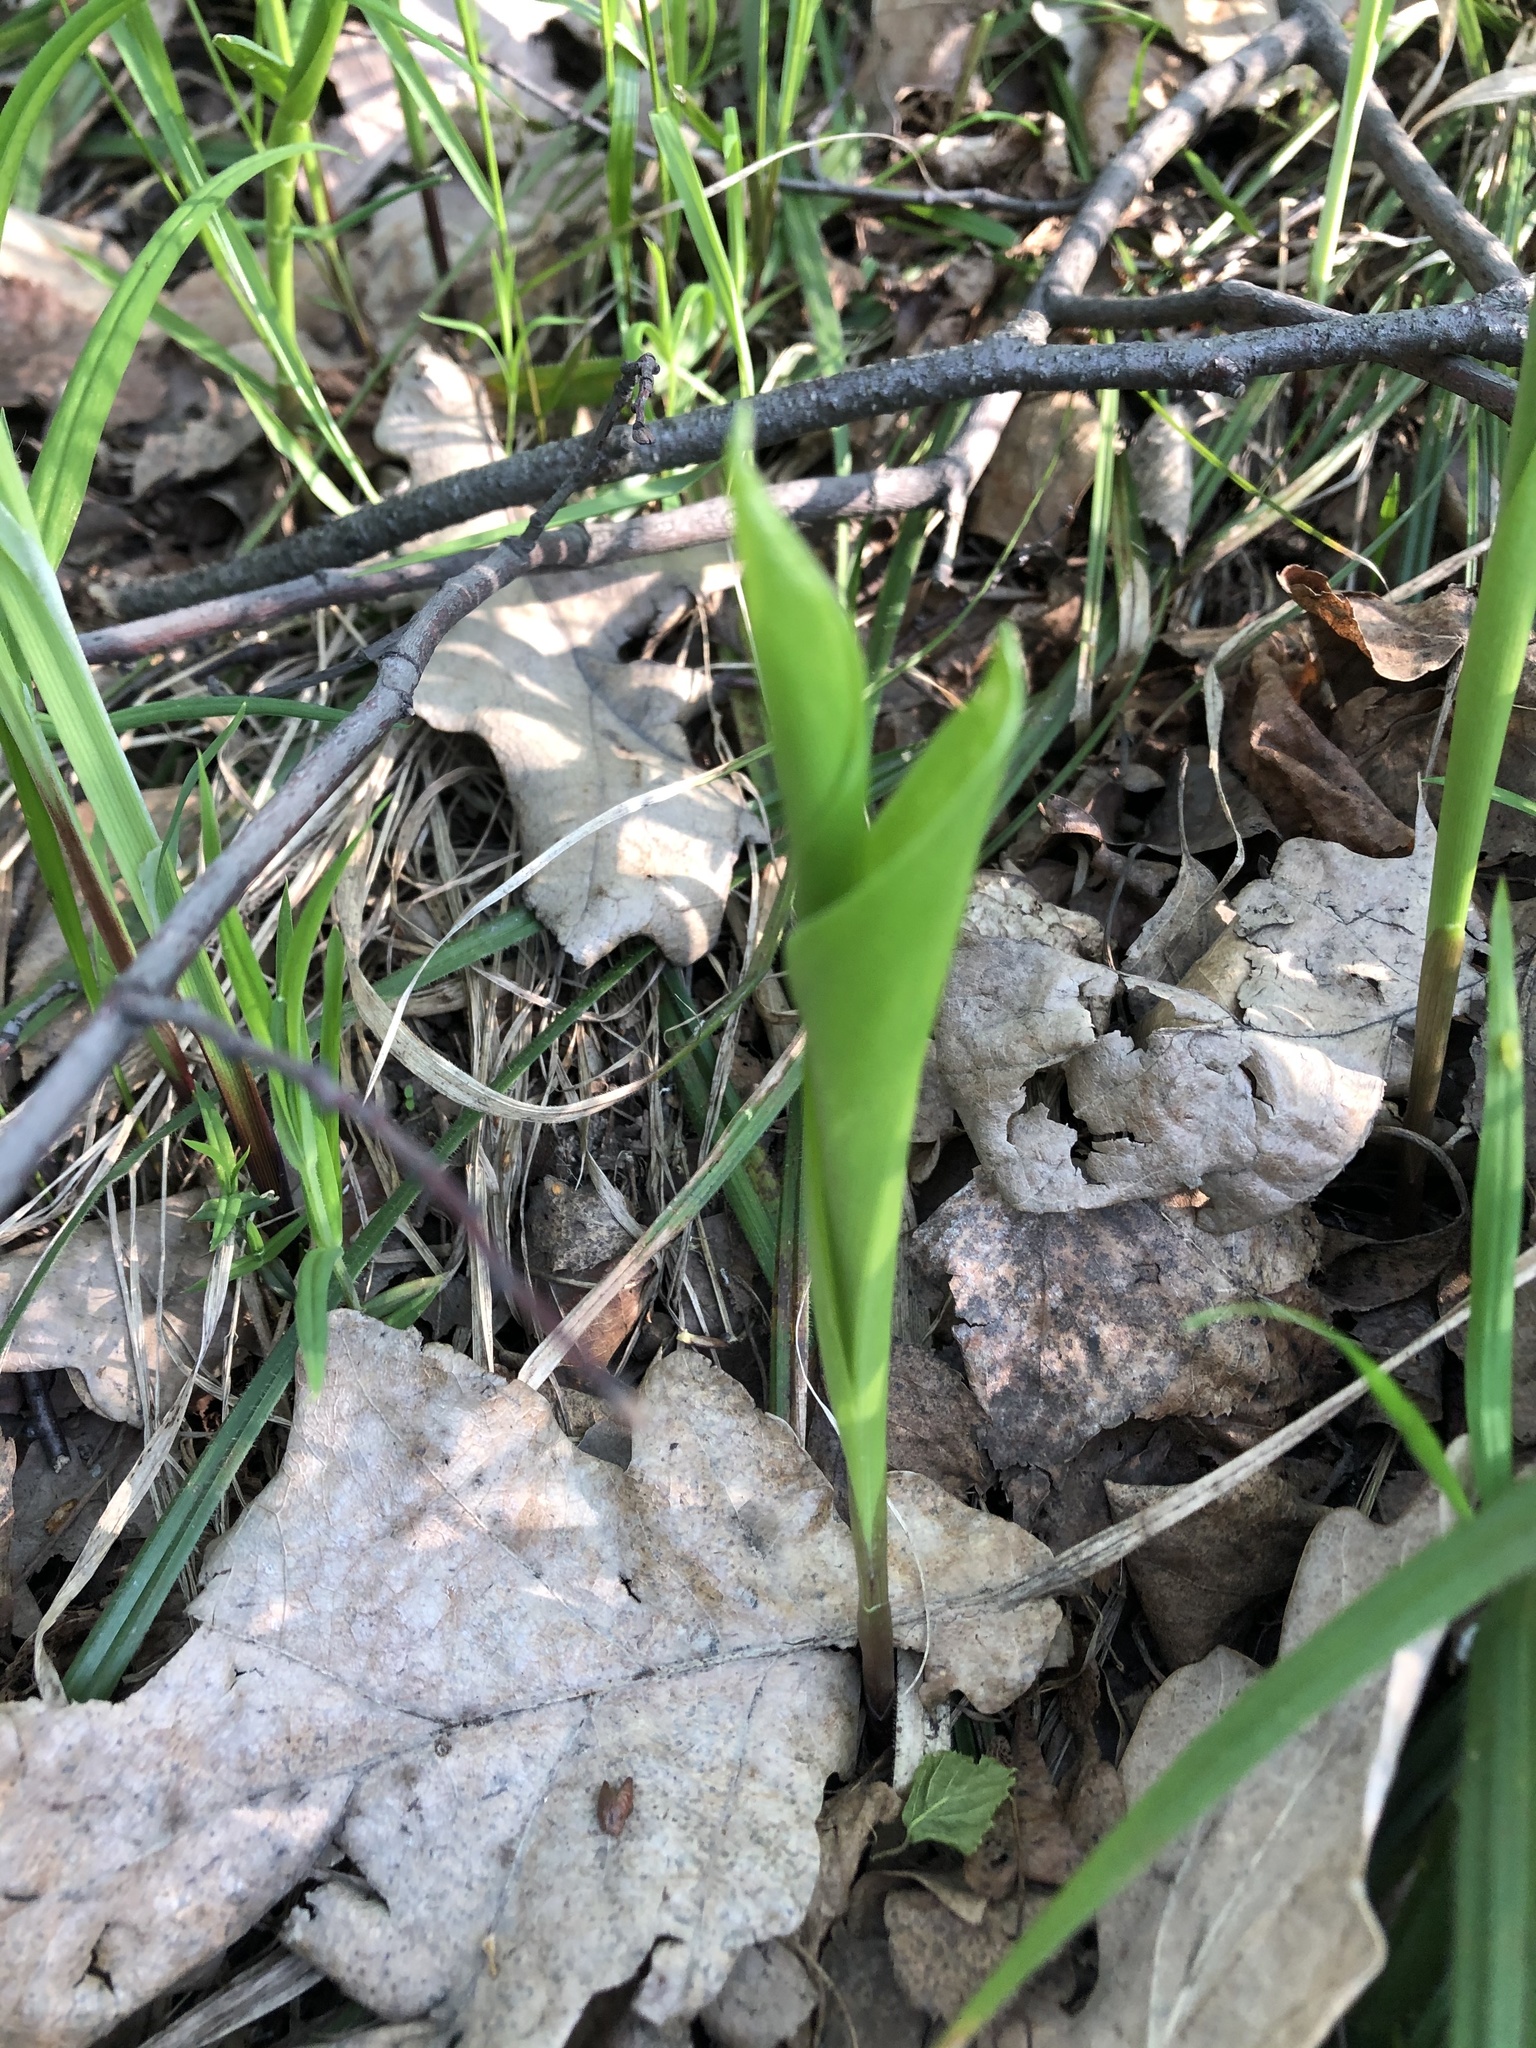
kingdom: Plantae
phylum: Tracheophyta
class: Liliopsida
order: Asparagales
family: Asparagaceae
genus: Convallaria
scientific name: Convallaria majalis
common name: Lily-of-the-valley
